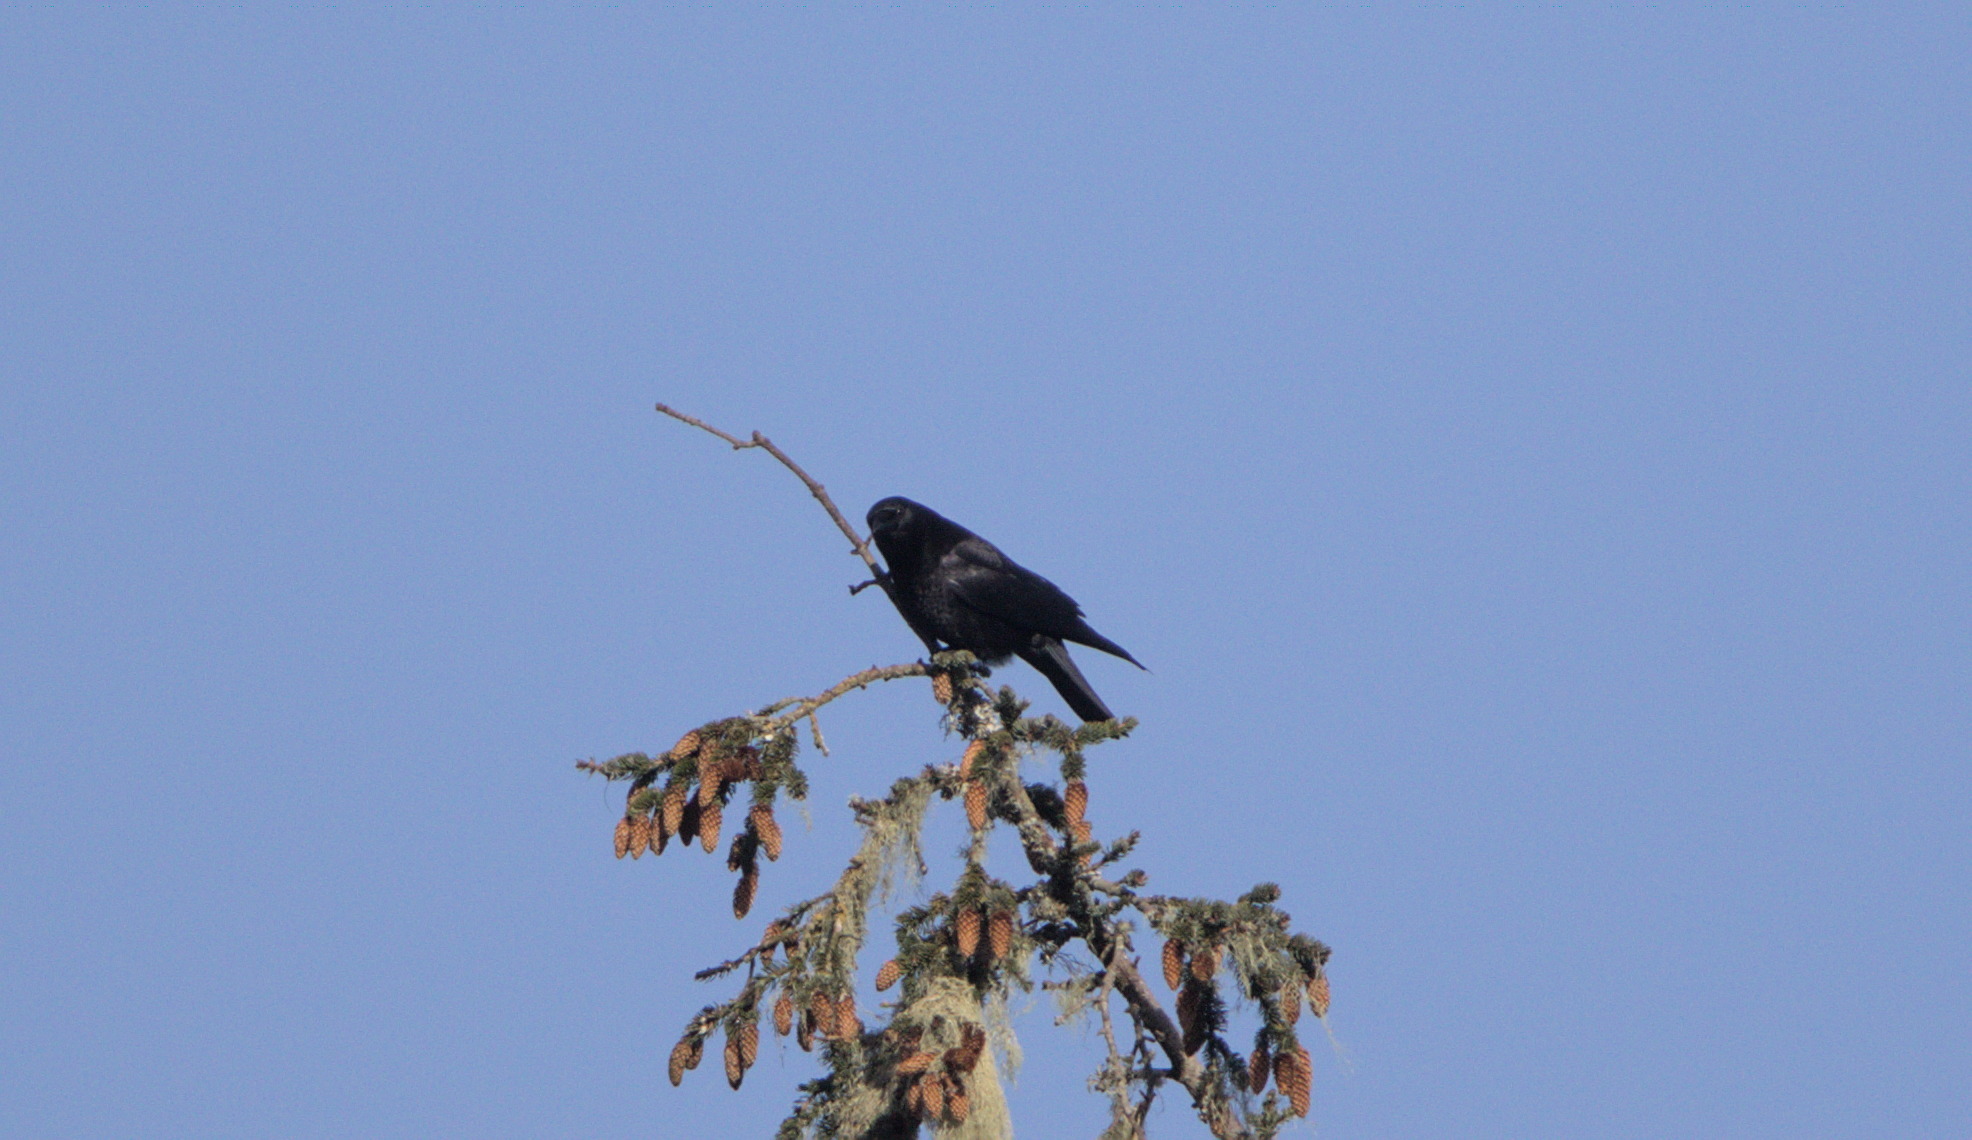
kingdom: Animalia
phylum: Chordata
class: Aves
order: Passeriformes
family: Corvidae
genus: Corvus
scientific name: Corvus brachyrhynchos
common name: American crow
